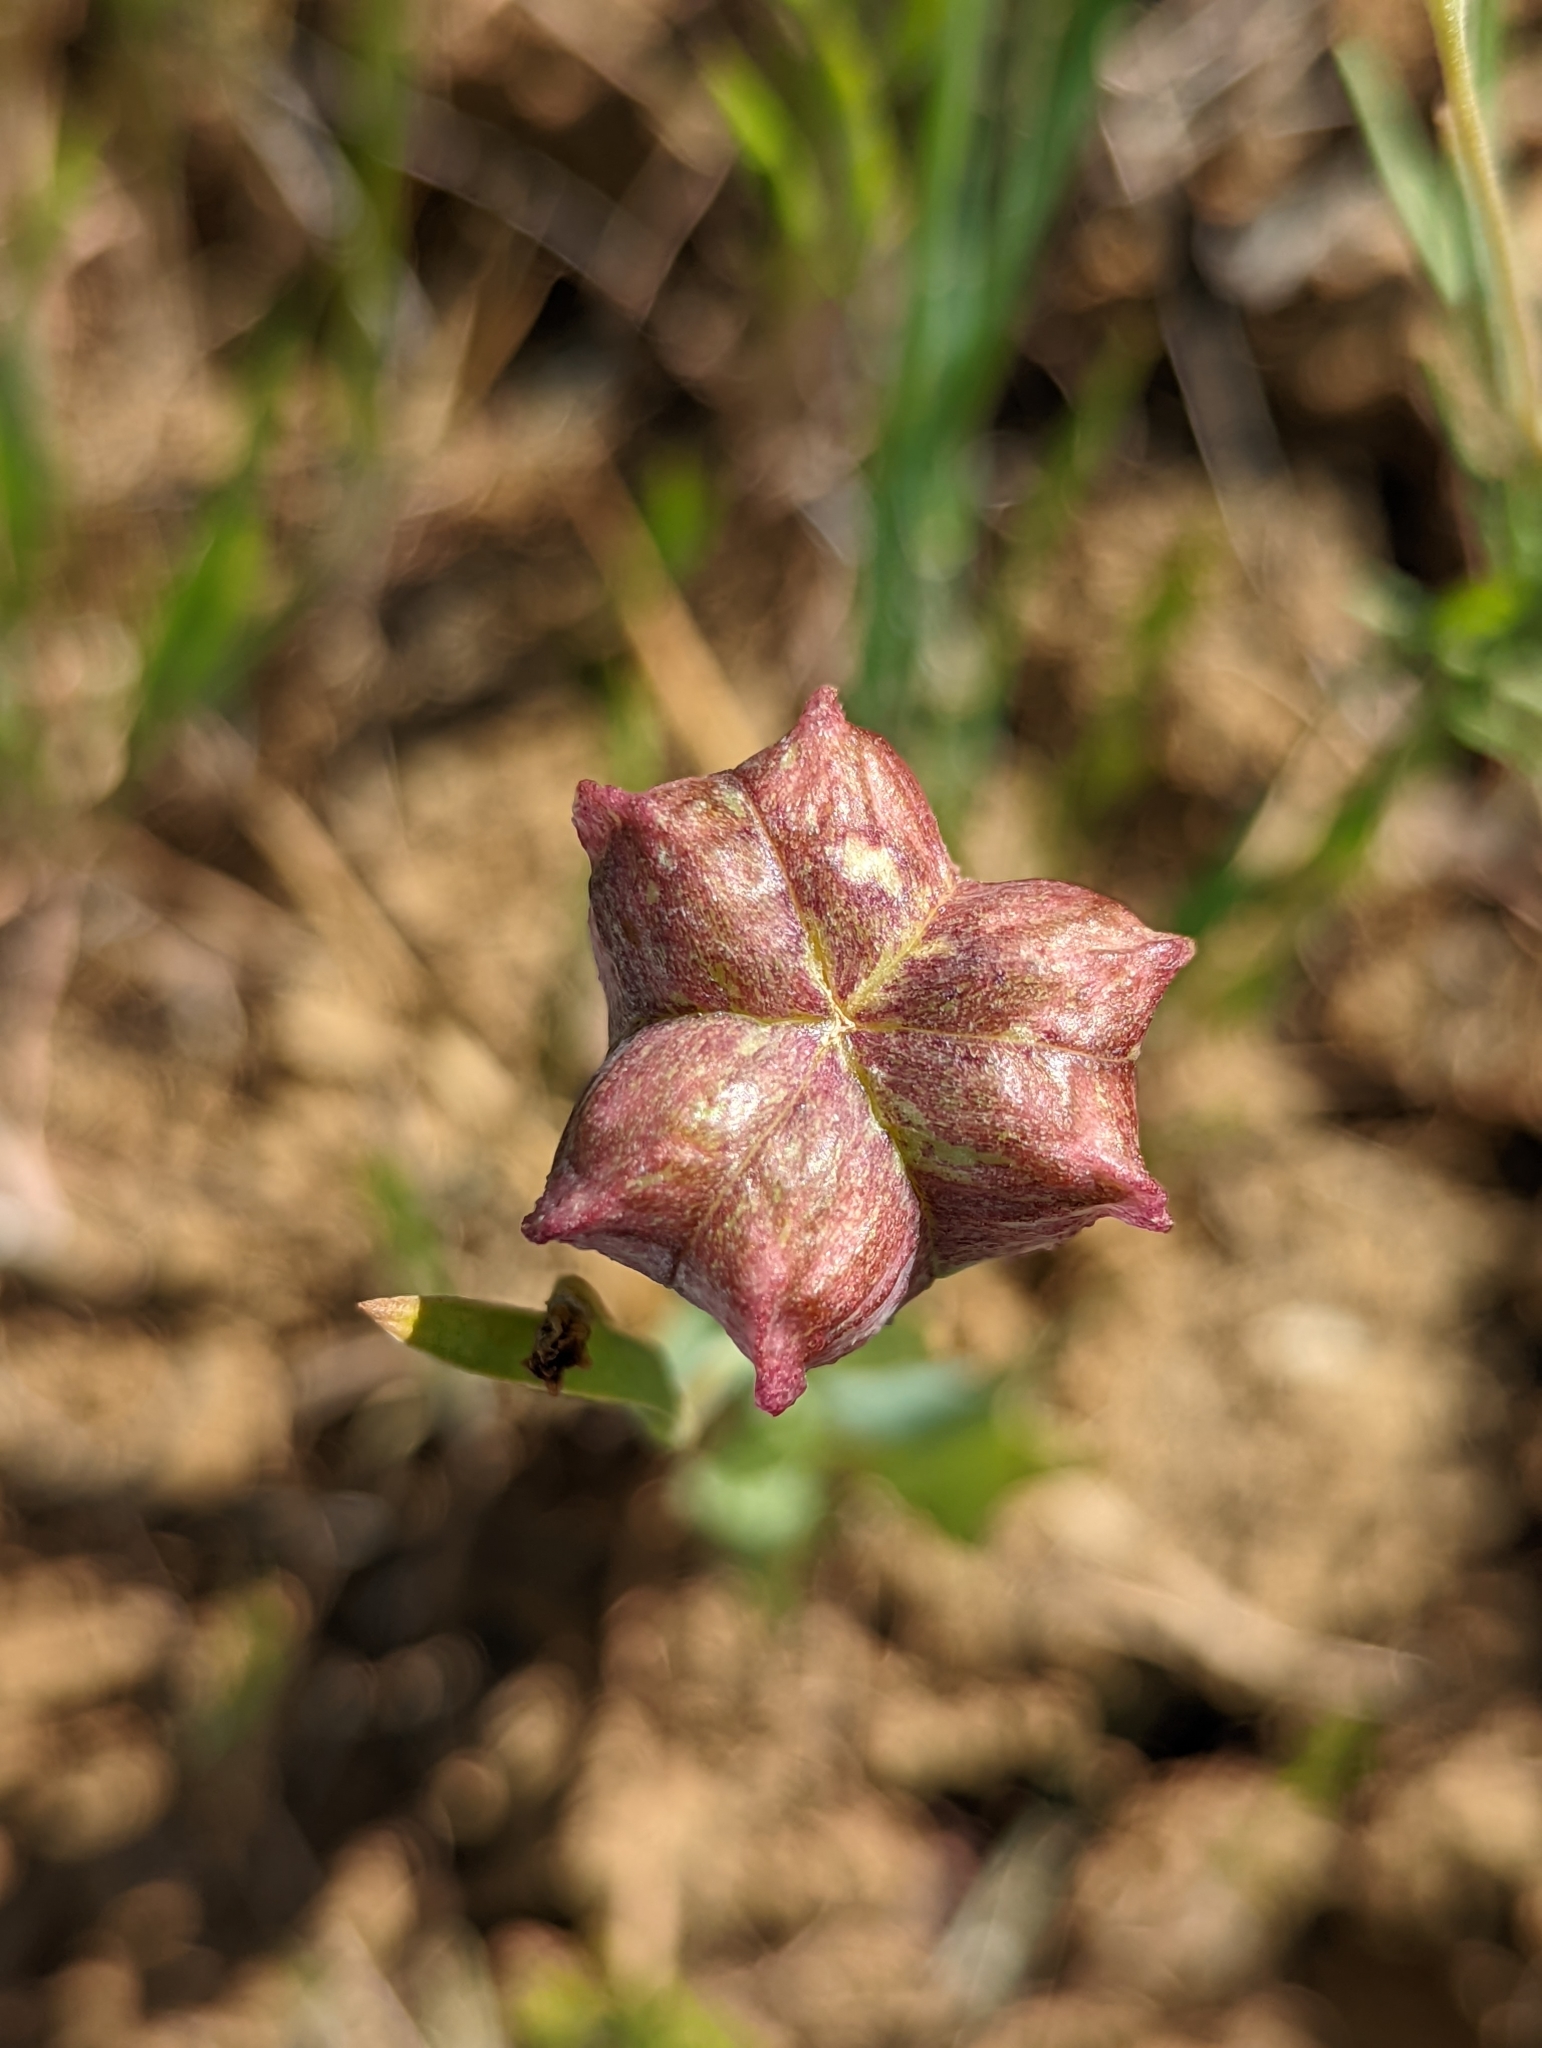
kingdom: Plantae
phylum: Tracheophyta
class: Liliopsida
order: Liliales
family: Liliaceae
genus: Fritillaria
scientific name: Fritillaria pluriflora
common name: Adobe-lily
